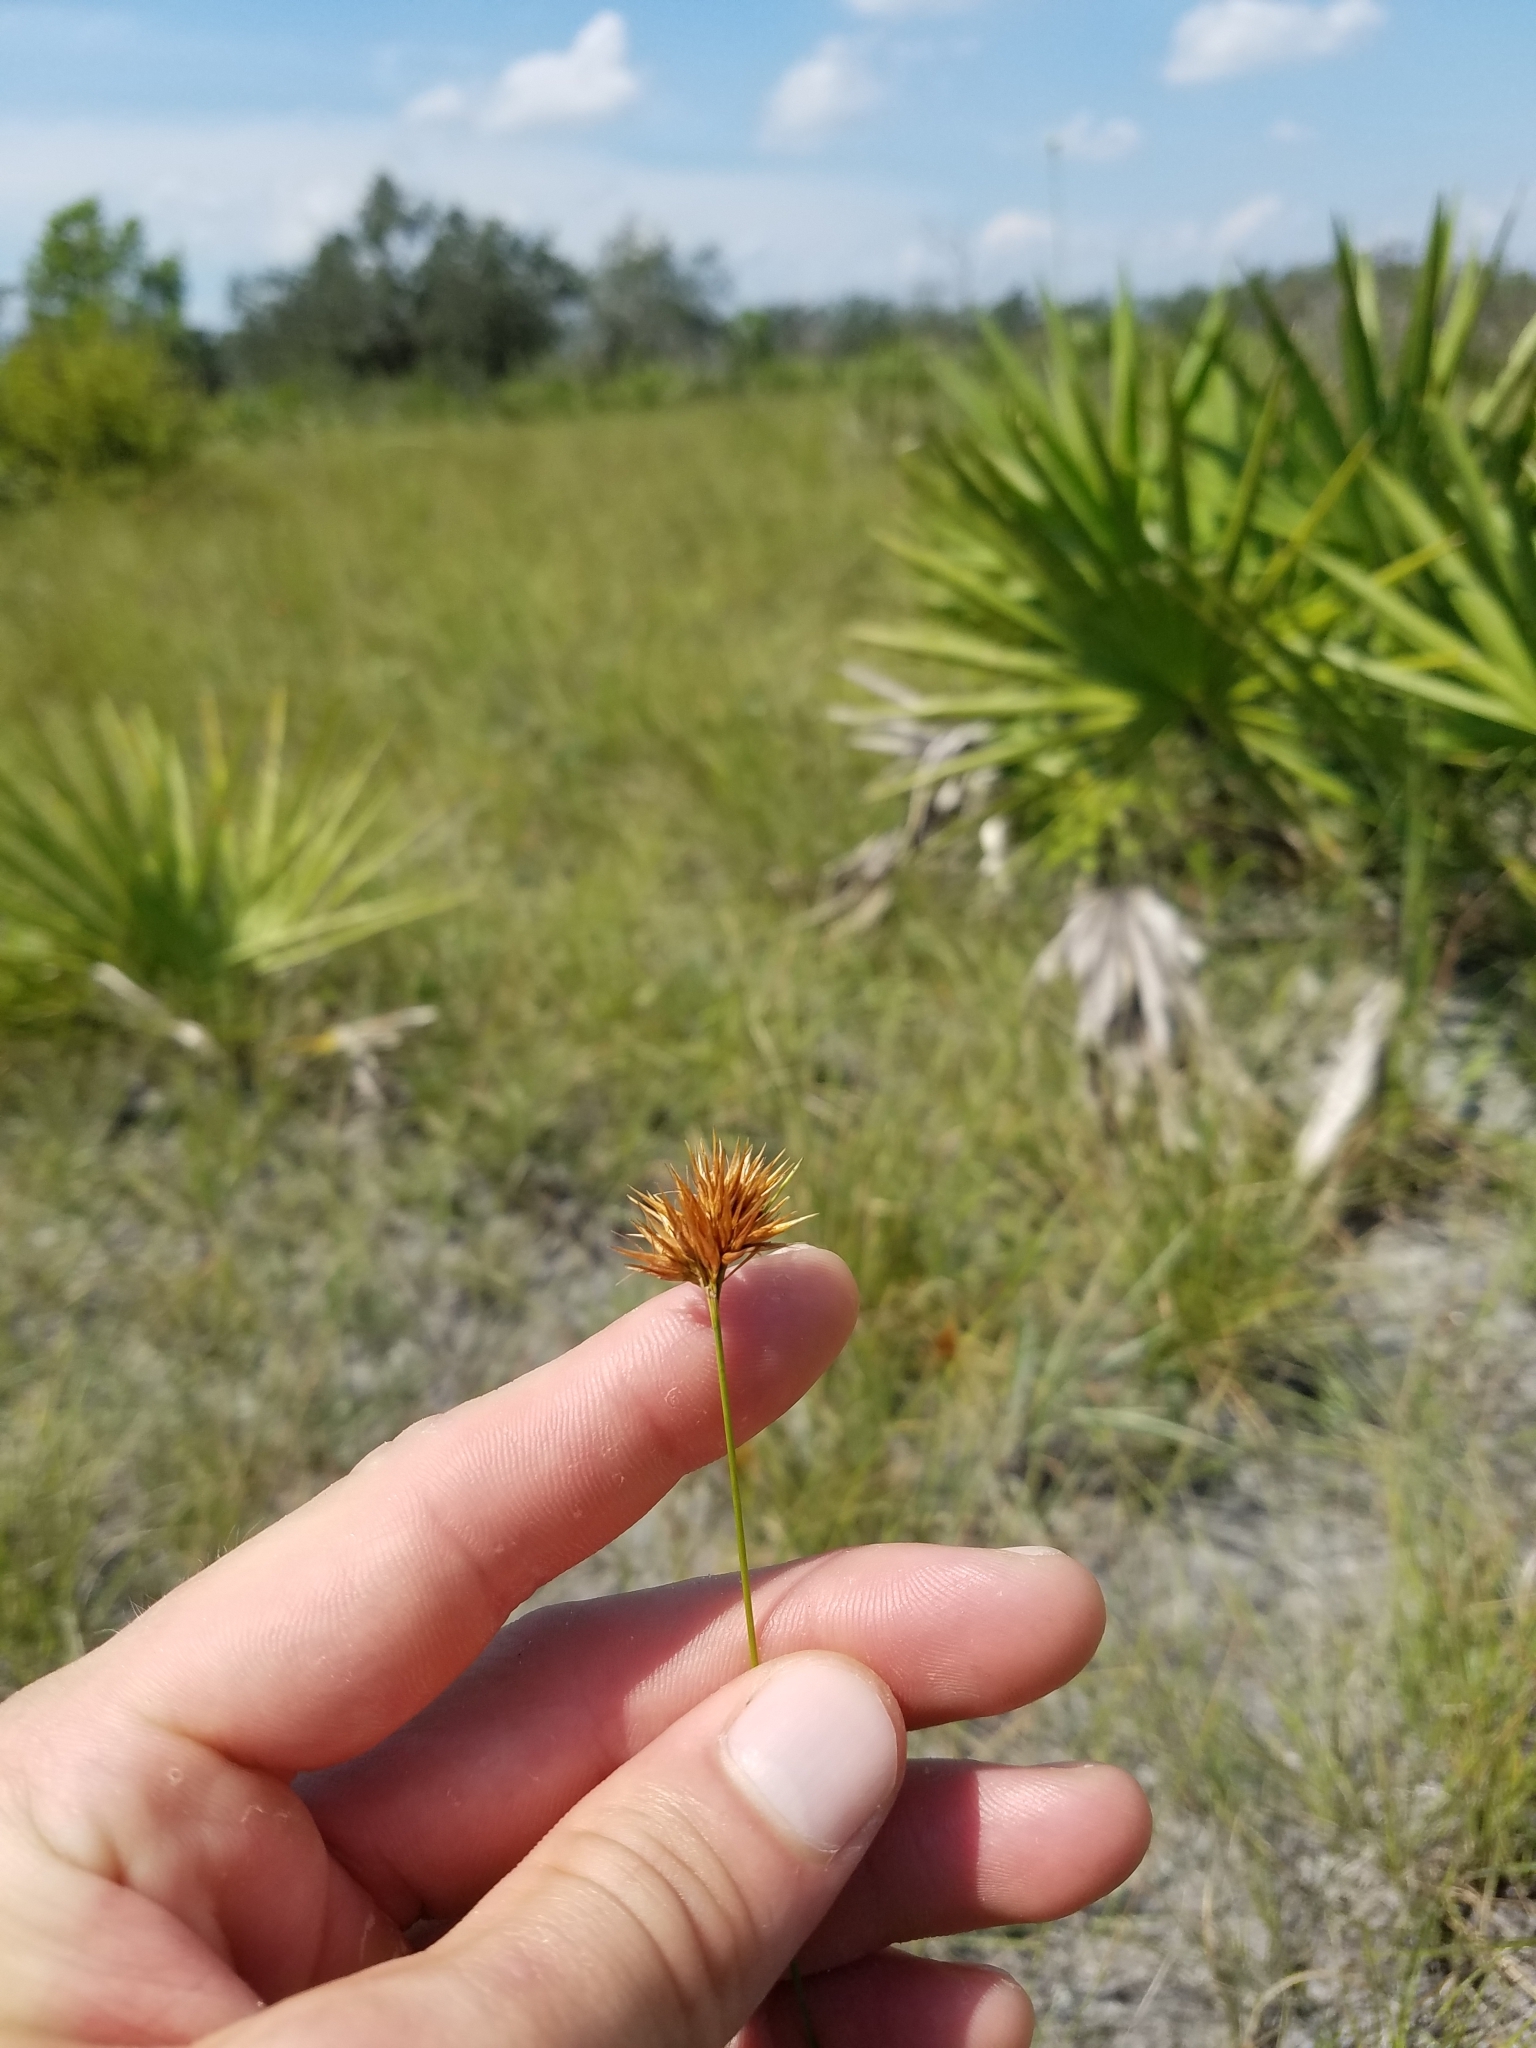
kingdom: Plantae
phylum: Tracheophyta
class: Liliopsida
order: Poales
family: Cyperaceae
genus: Rhynchospora
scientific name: Rhynchospora megaplumosa
